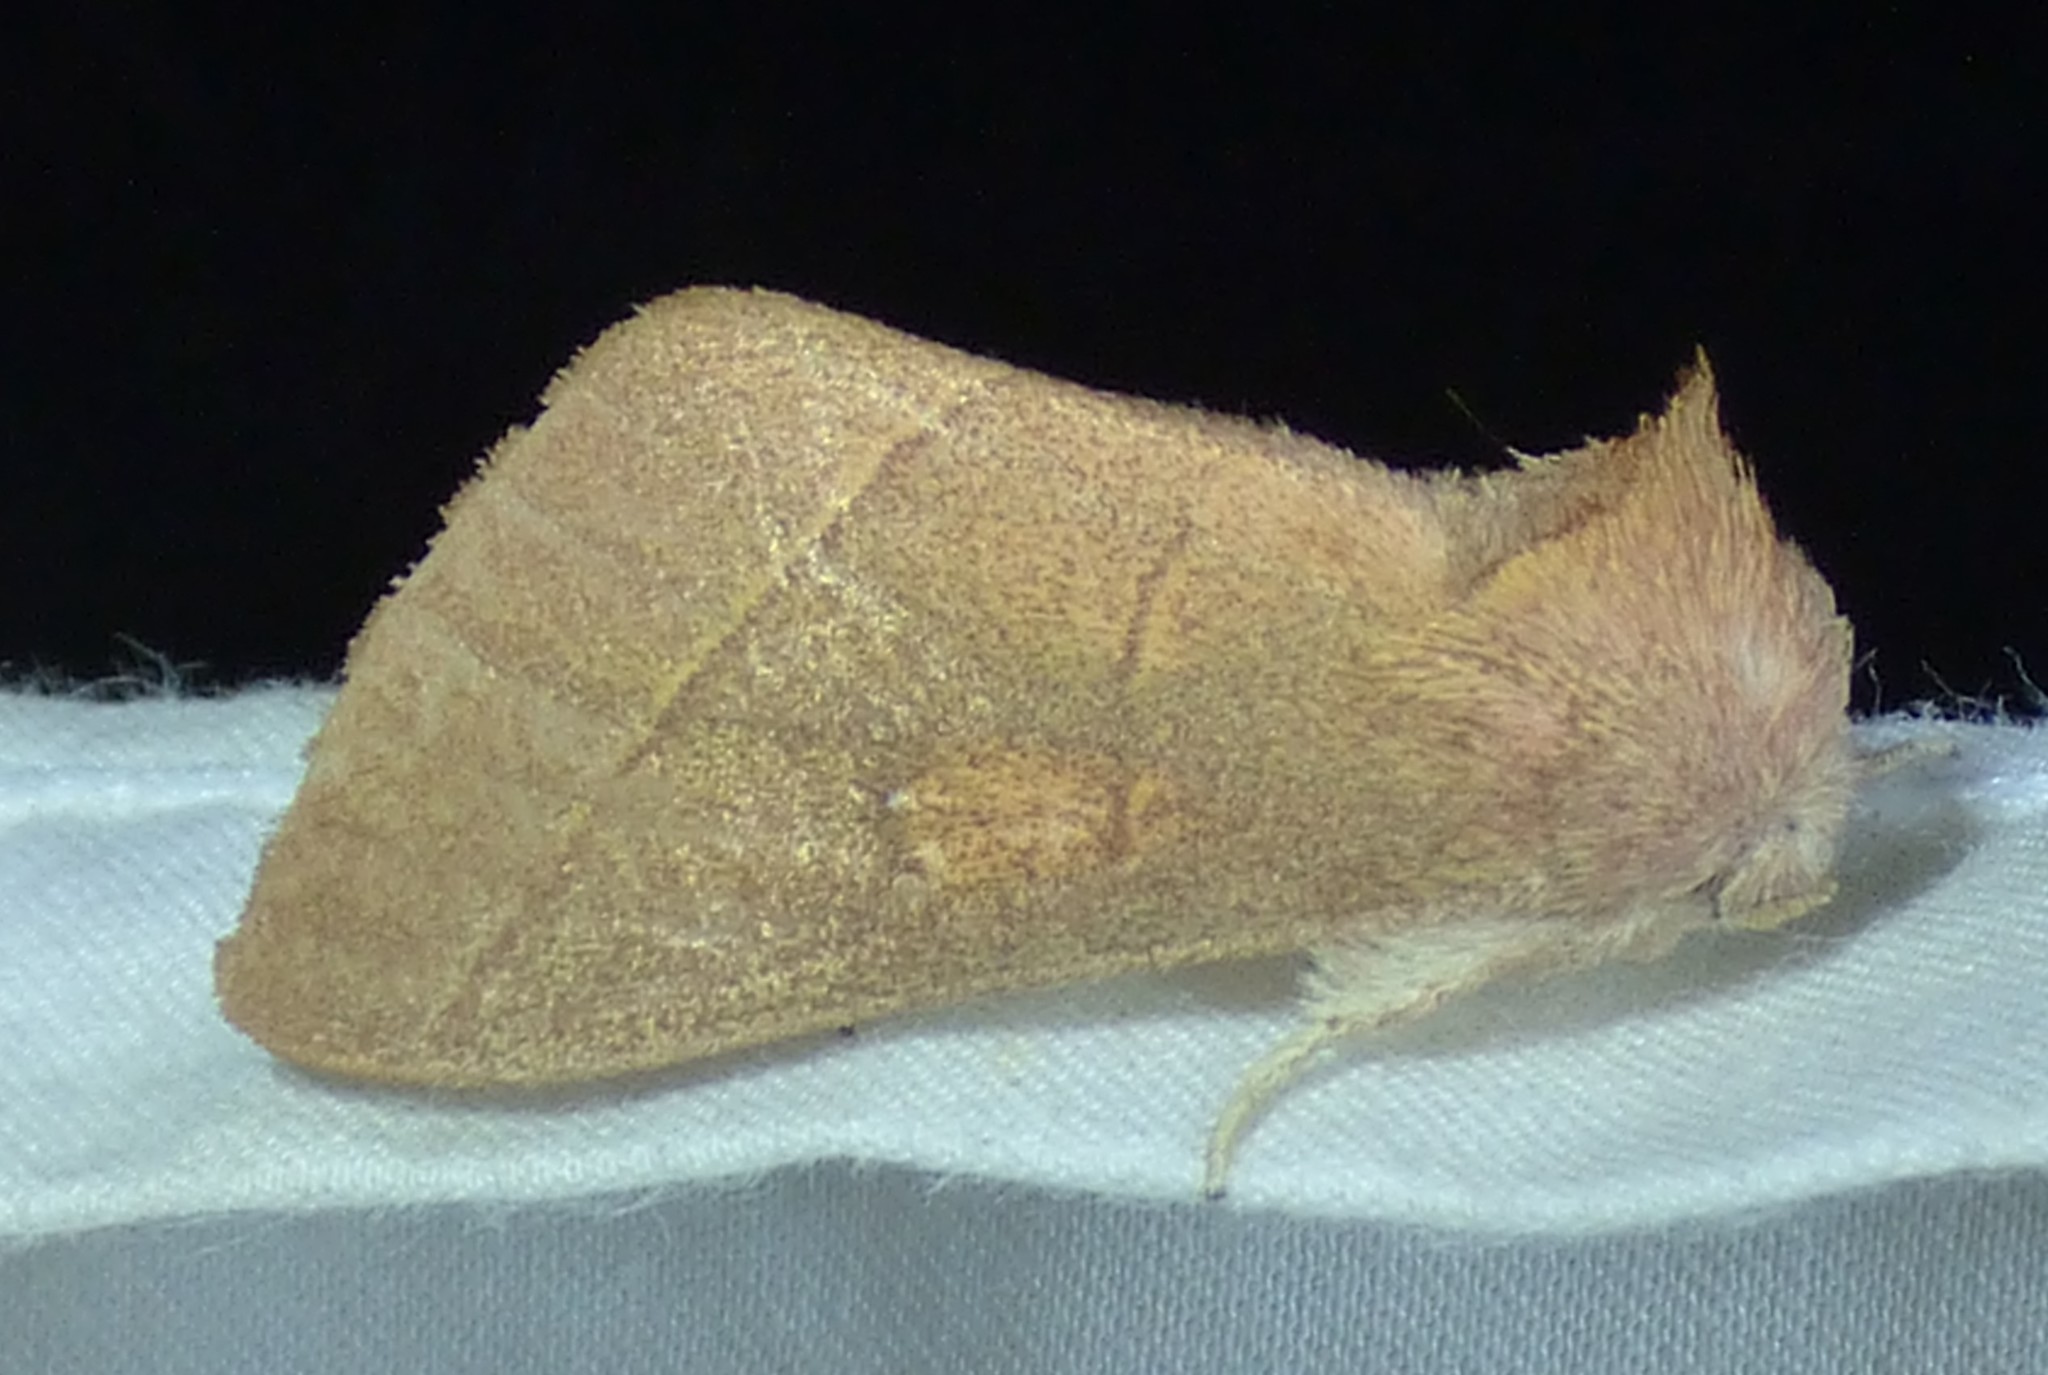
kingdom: Animalia
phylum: Arthropoda
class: Insecta
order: Lepidoptera
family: Notodontidae
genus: Nadata
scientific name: Nadata gibbosa
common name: White-dotted prominent
